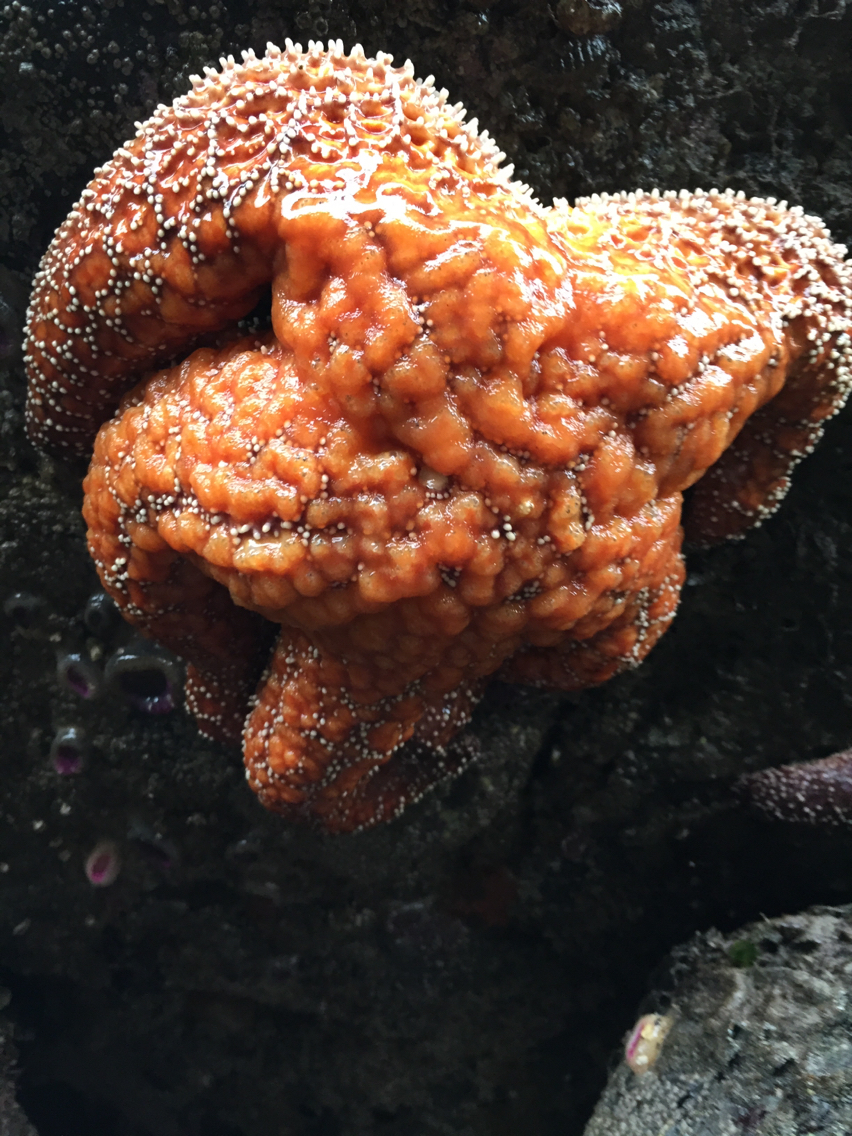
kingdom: Animalia
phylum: Echinodermata
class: Asteroidea
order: Forcipulatida
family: Asteriidae
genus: Pisaster
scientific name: Pisaster ochraceus
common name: Ochre stars
